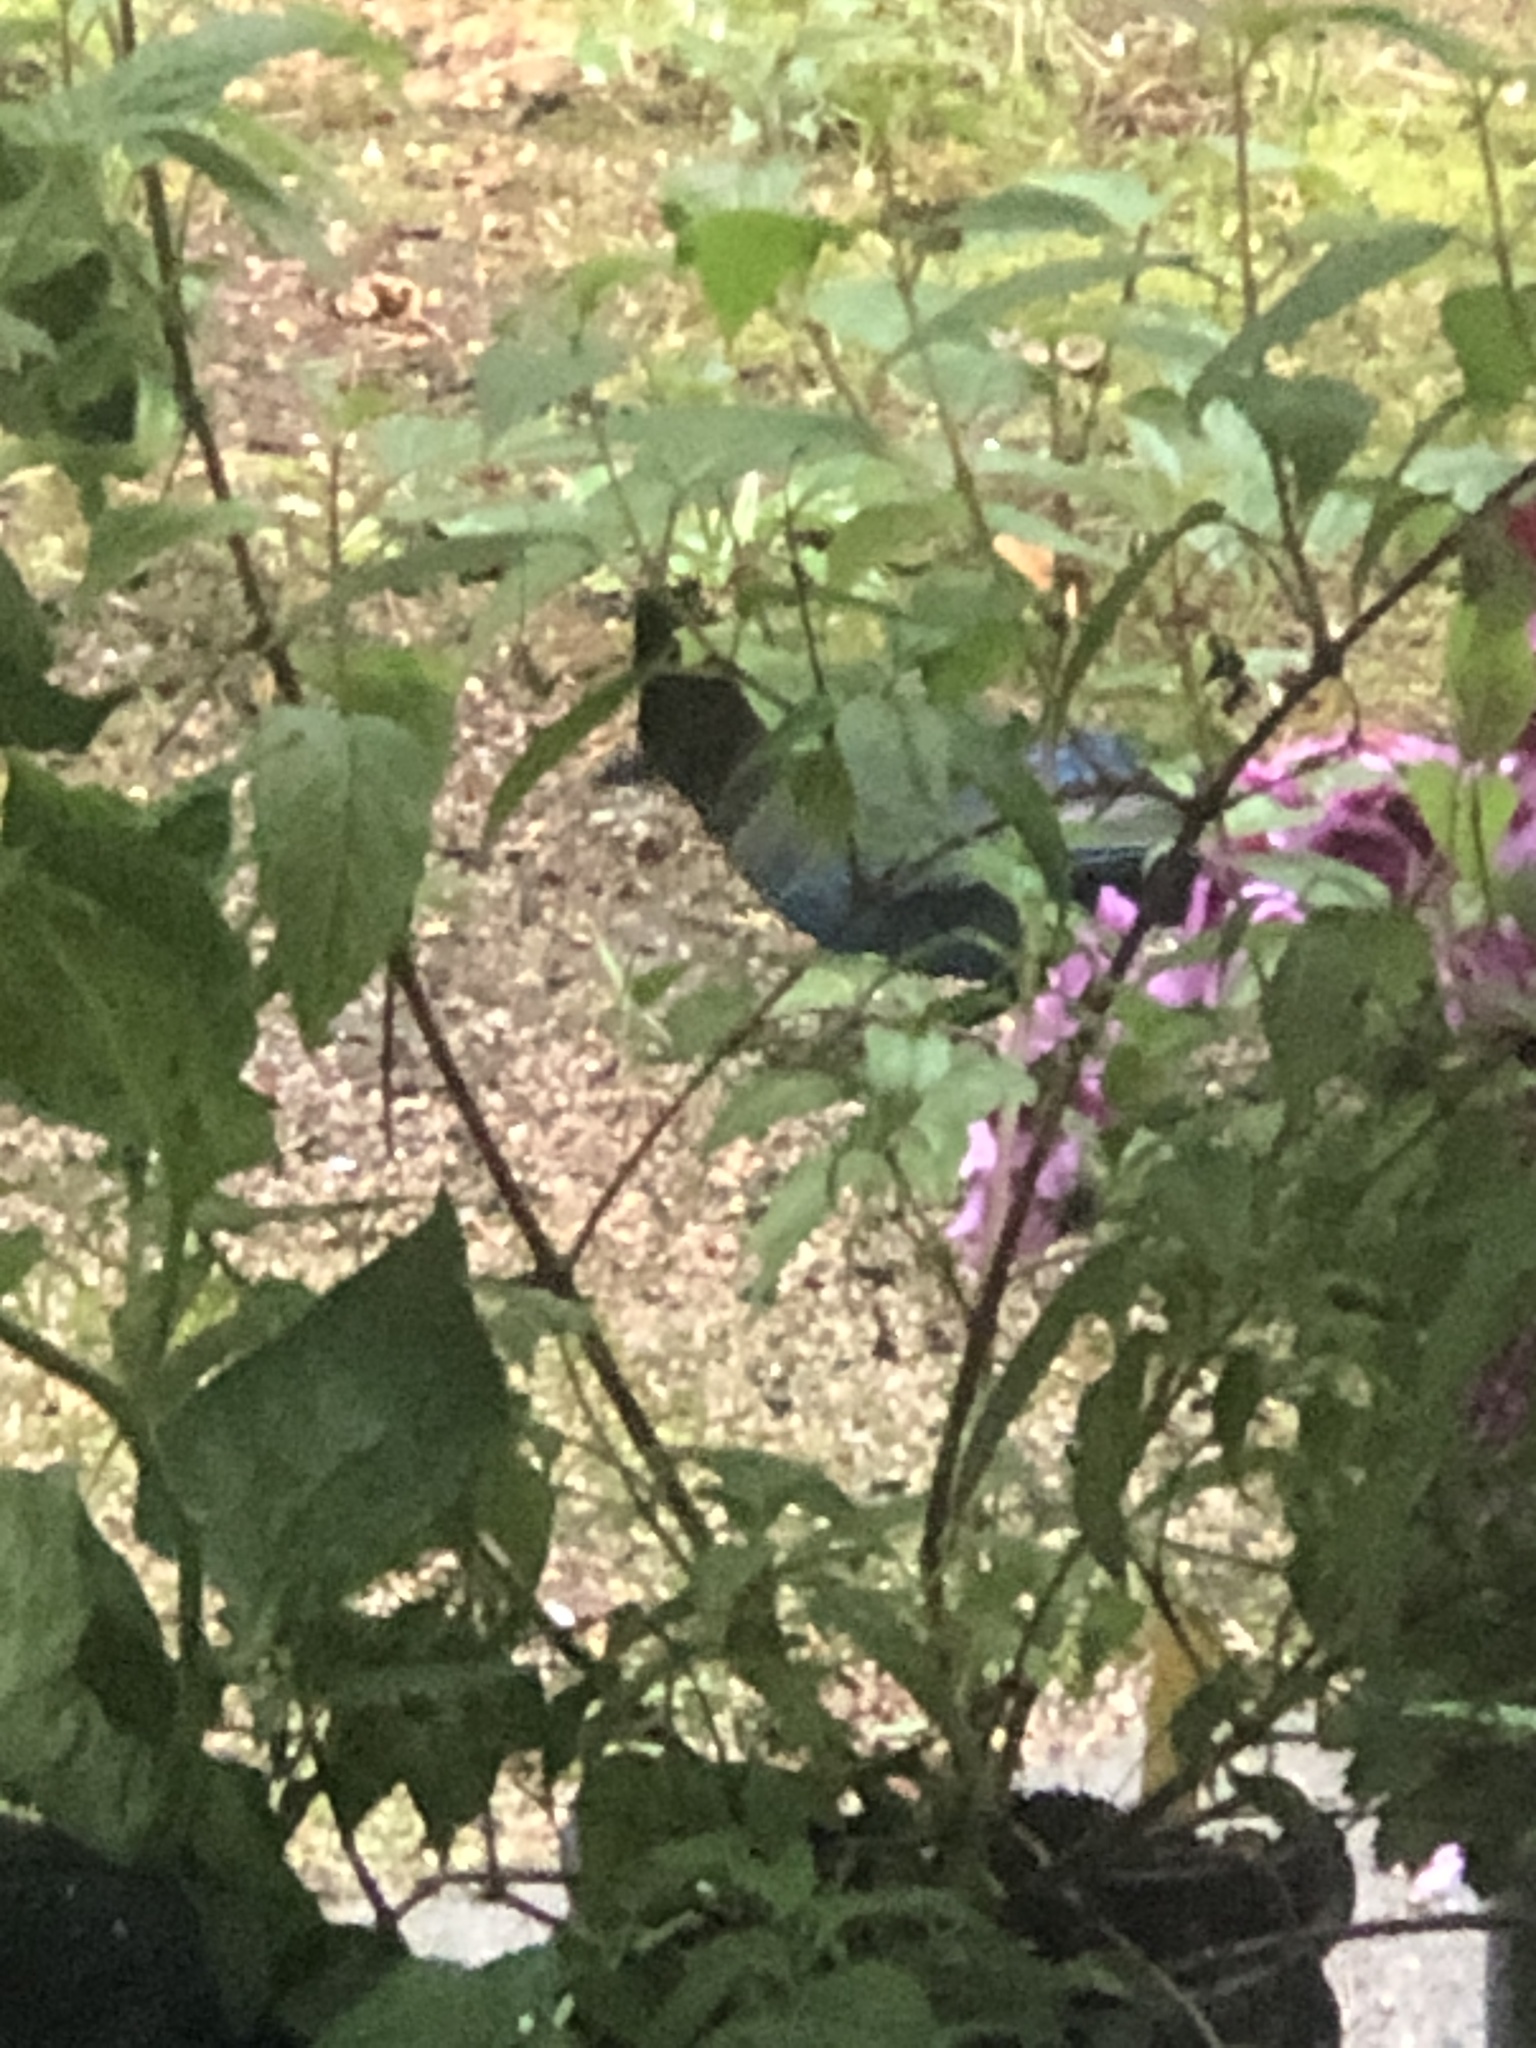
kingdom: Animalia
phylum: Chordata
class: Aves
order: Passeriformes
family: Corvidae
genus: Cyanocitta
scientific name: Cyanocitta stelleri
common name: Steller's jay
